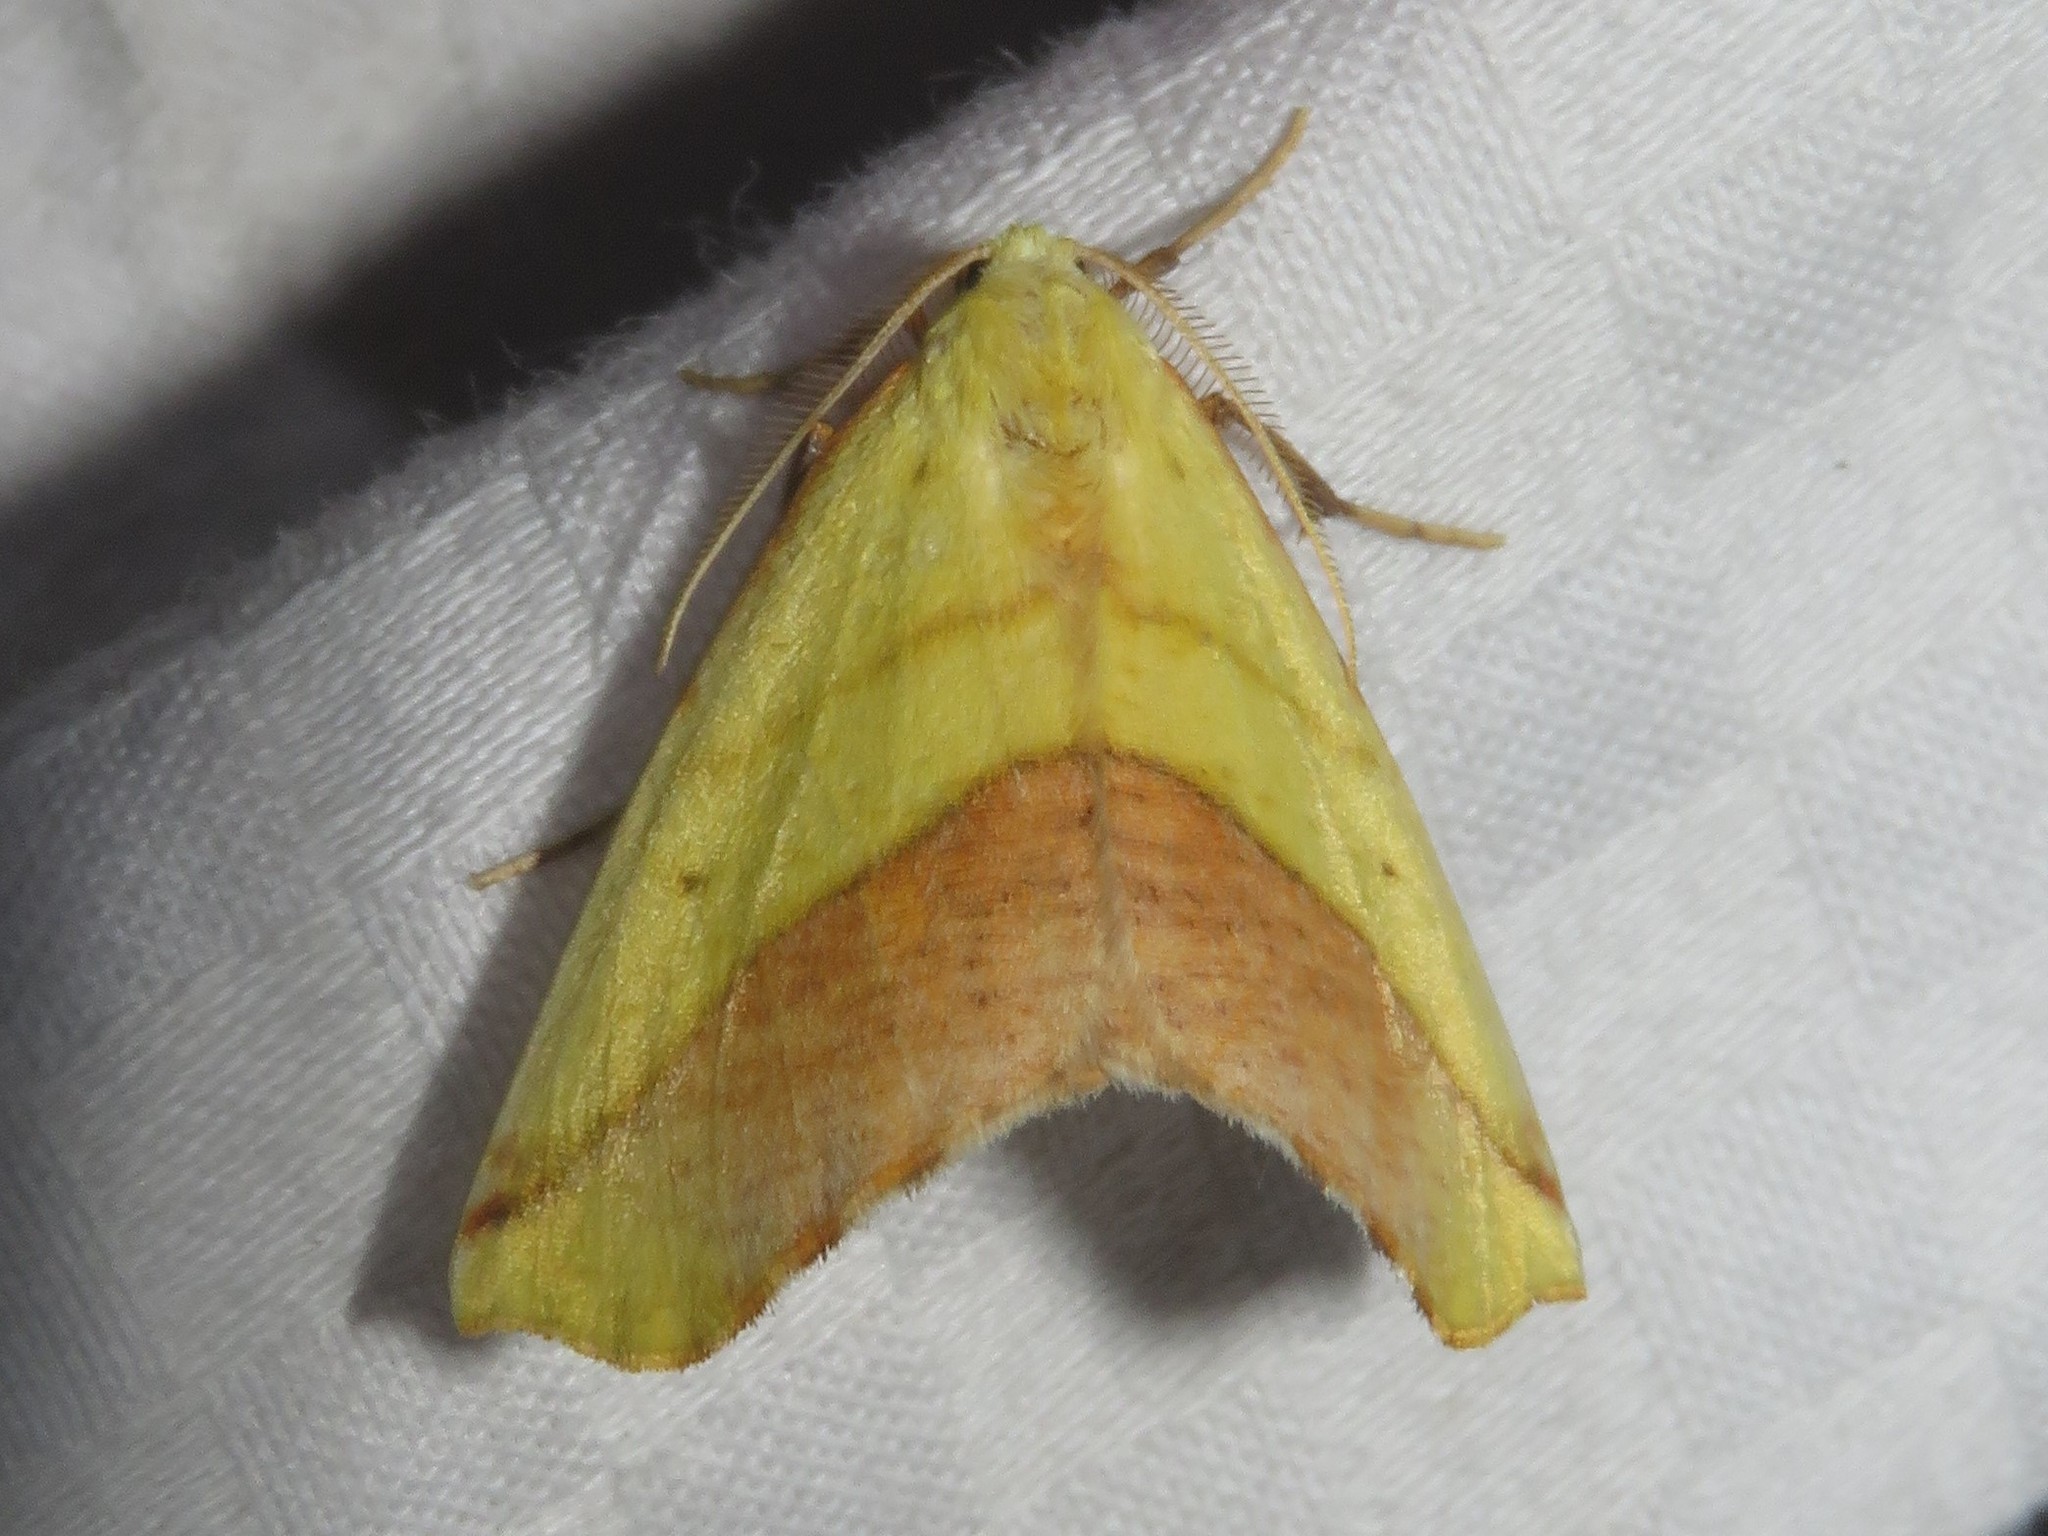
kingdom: Animalia
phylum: Arthropoda
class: Insecta
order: Lepidoptera
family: Geometridae
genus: Sicya
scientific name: Sicya macularia
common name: Sharp-lined yellow
